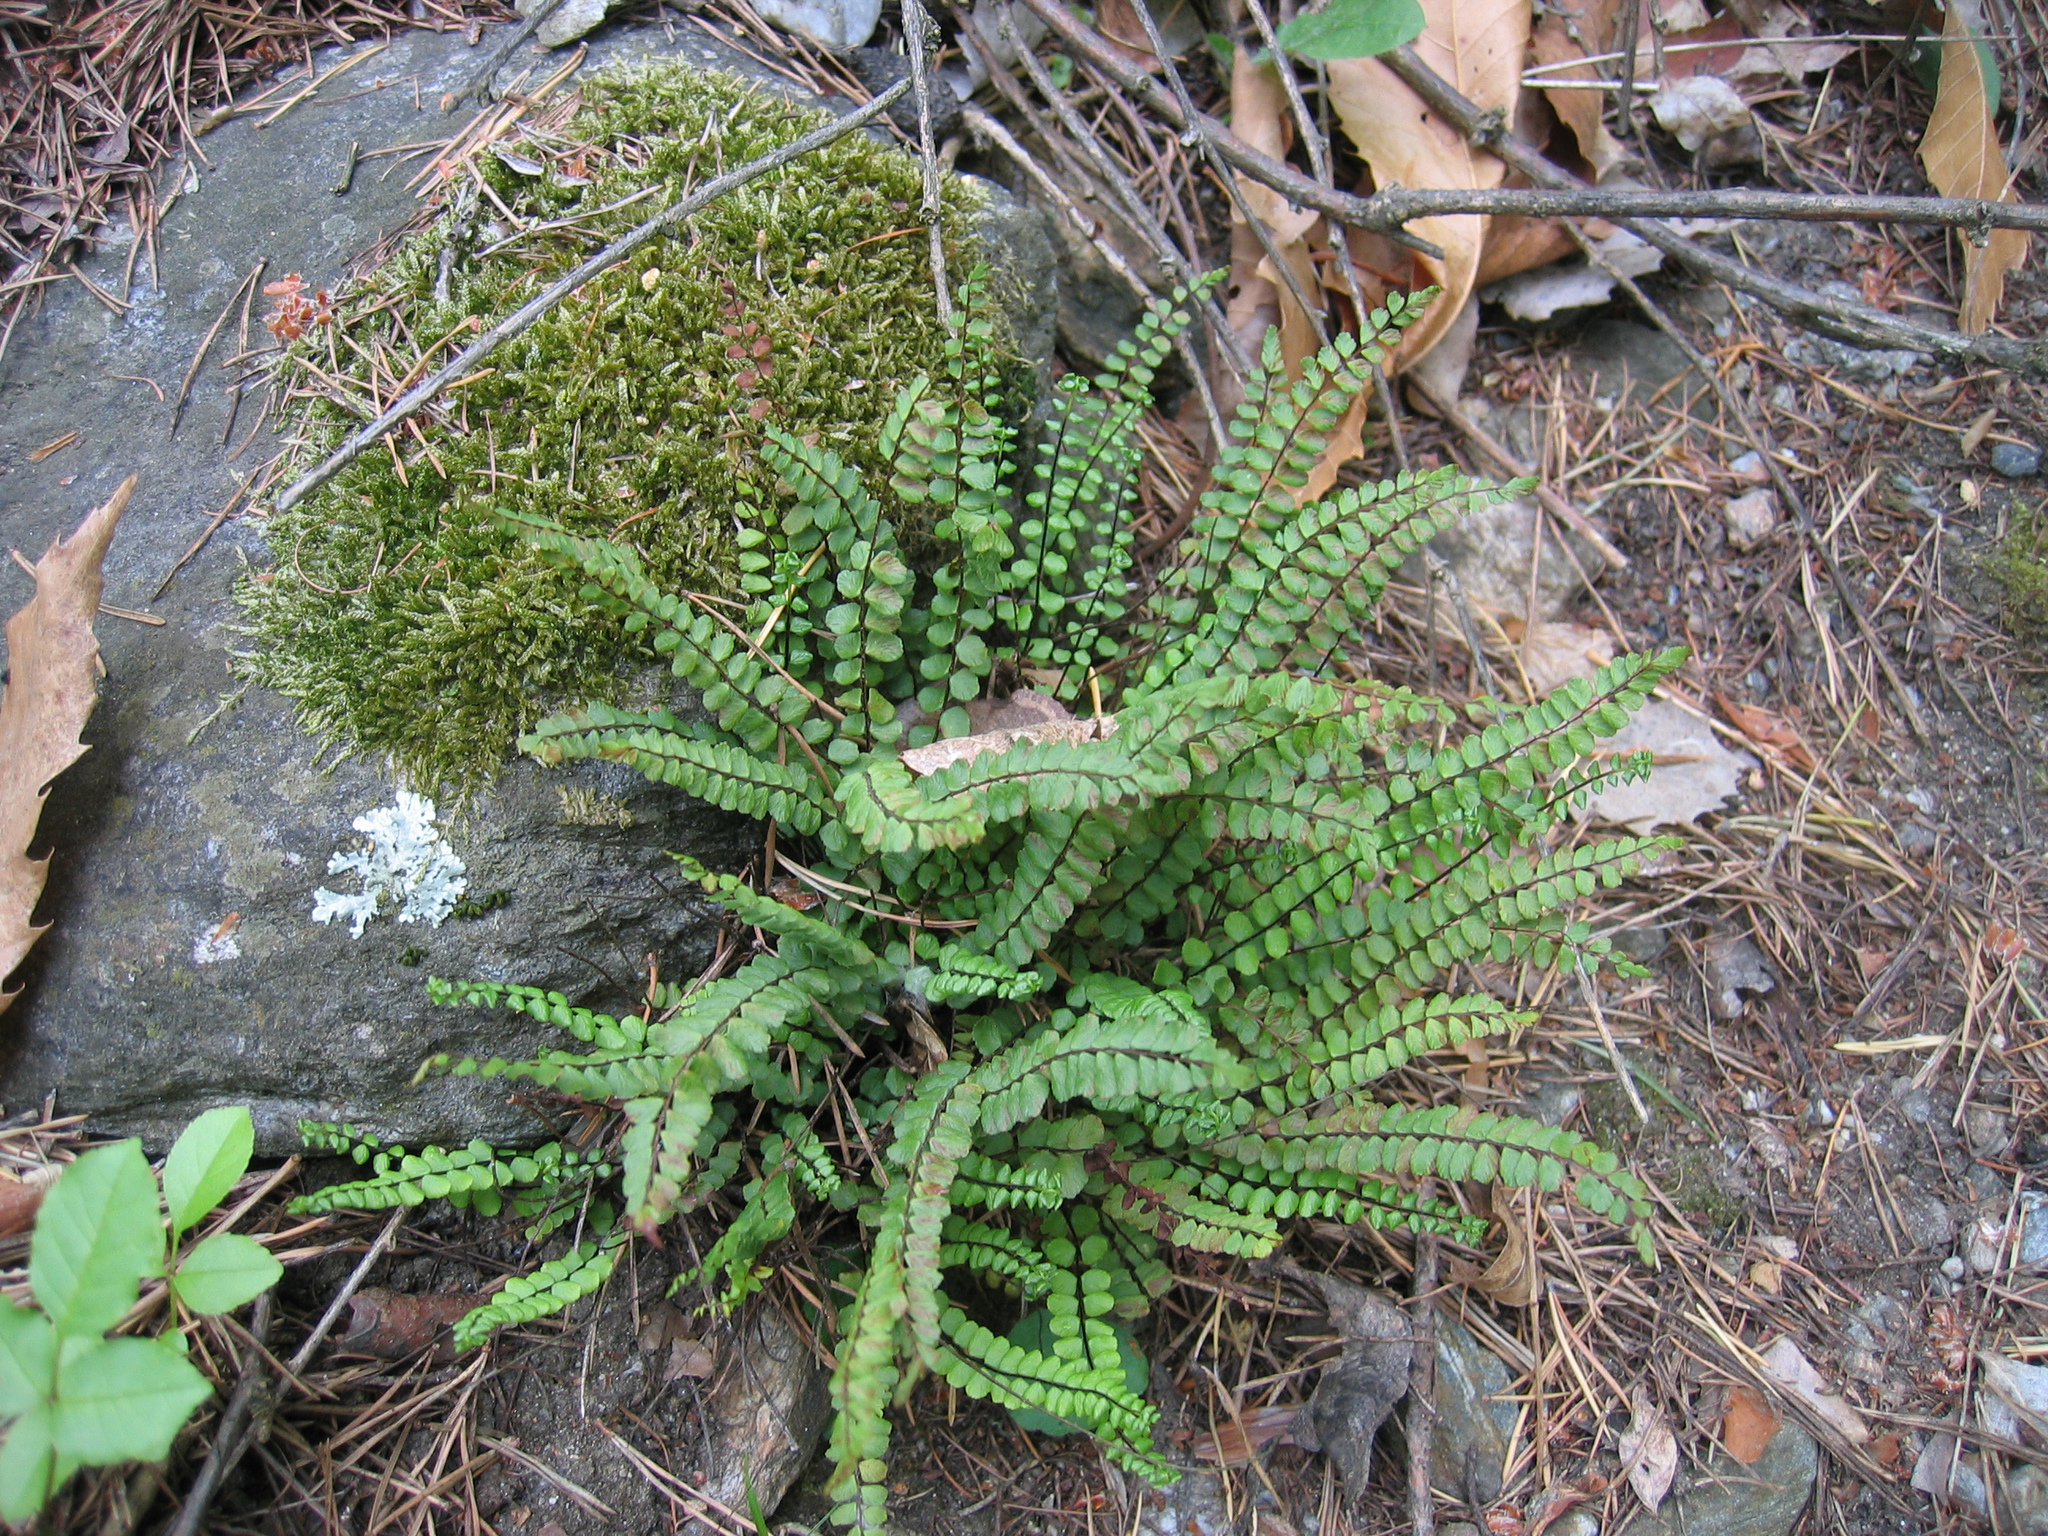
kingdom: Plantae
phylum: Tracheophyta
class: Polypodiopsida
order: Polypodiales
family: Aspleniaceae
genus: Asplenium
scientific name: Asplenium trichomanes
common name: Maidenhair spleenwort
